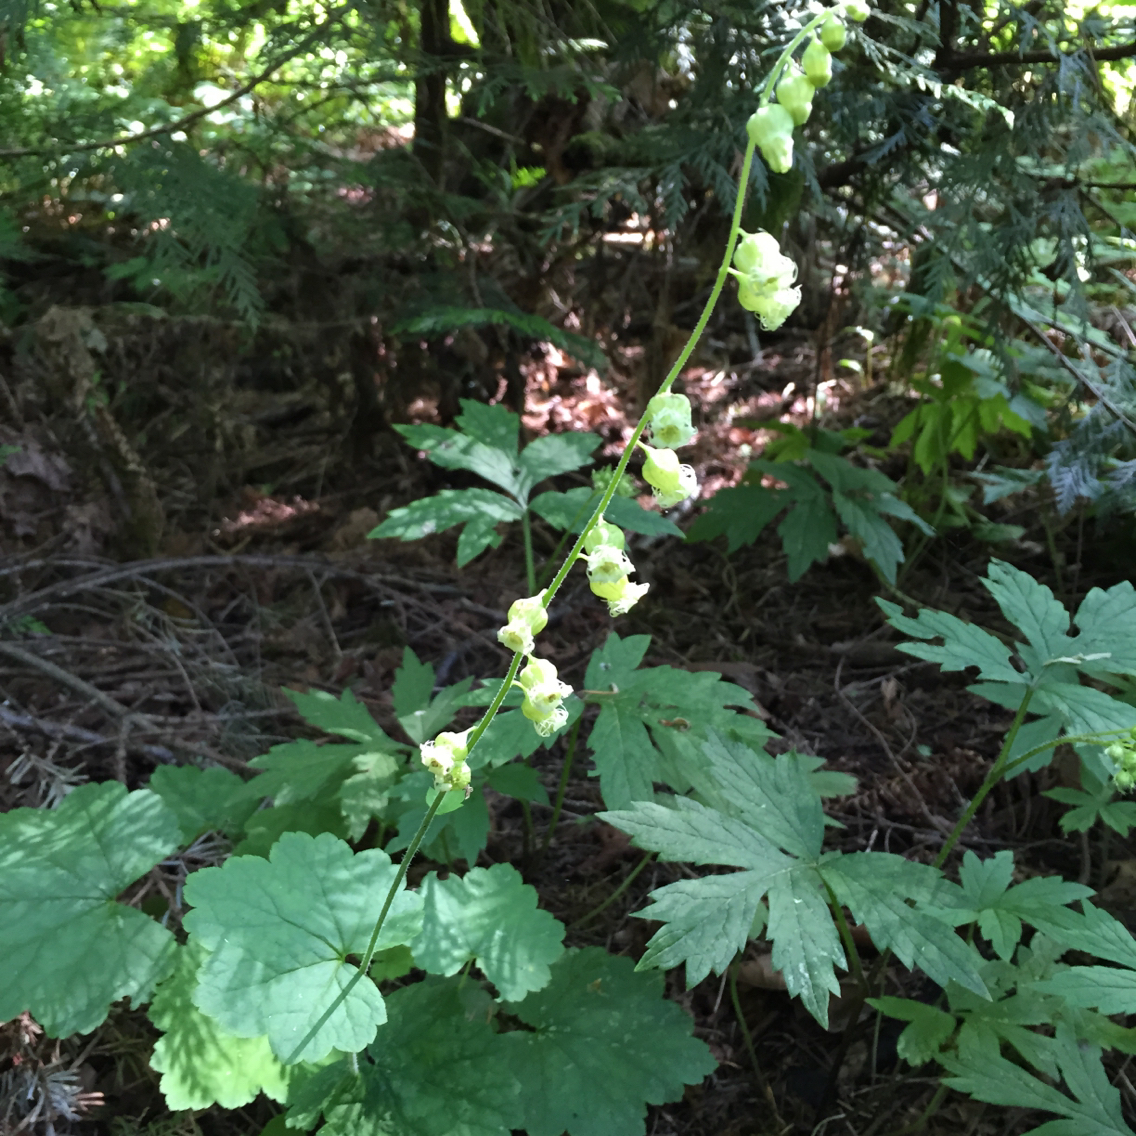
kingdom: Plantae
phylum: Tracheophyta
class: Magnoliopsida
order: Saxifragales
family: Saxifragaceae
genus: Tellima
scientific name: Tellima grandiflora
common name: Fringecups
